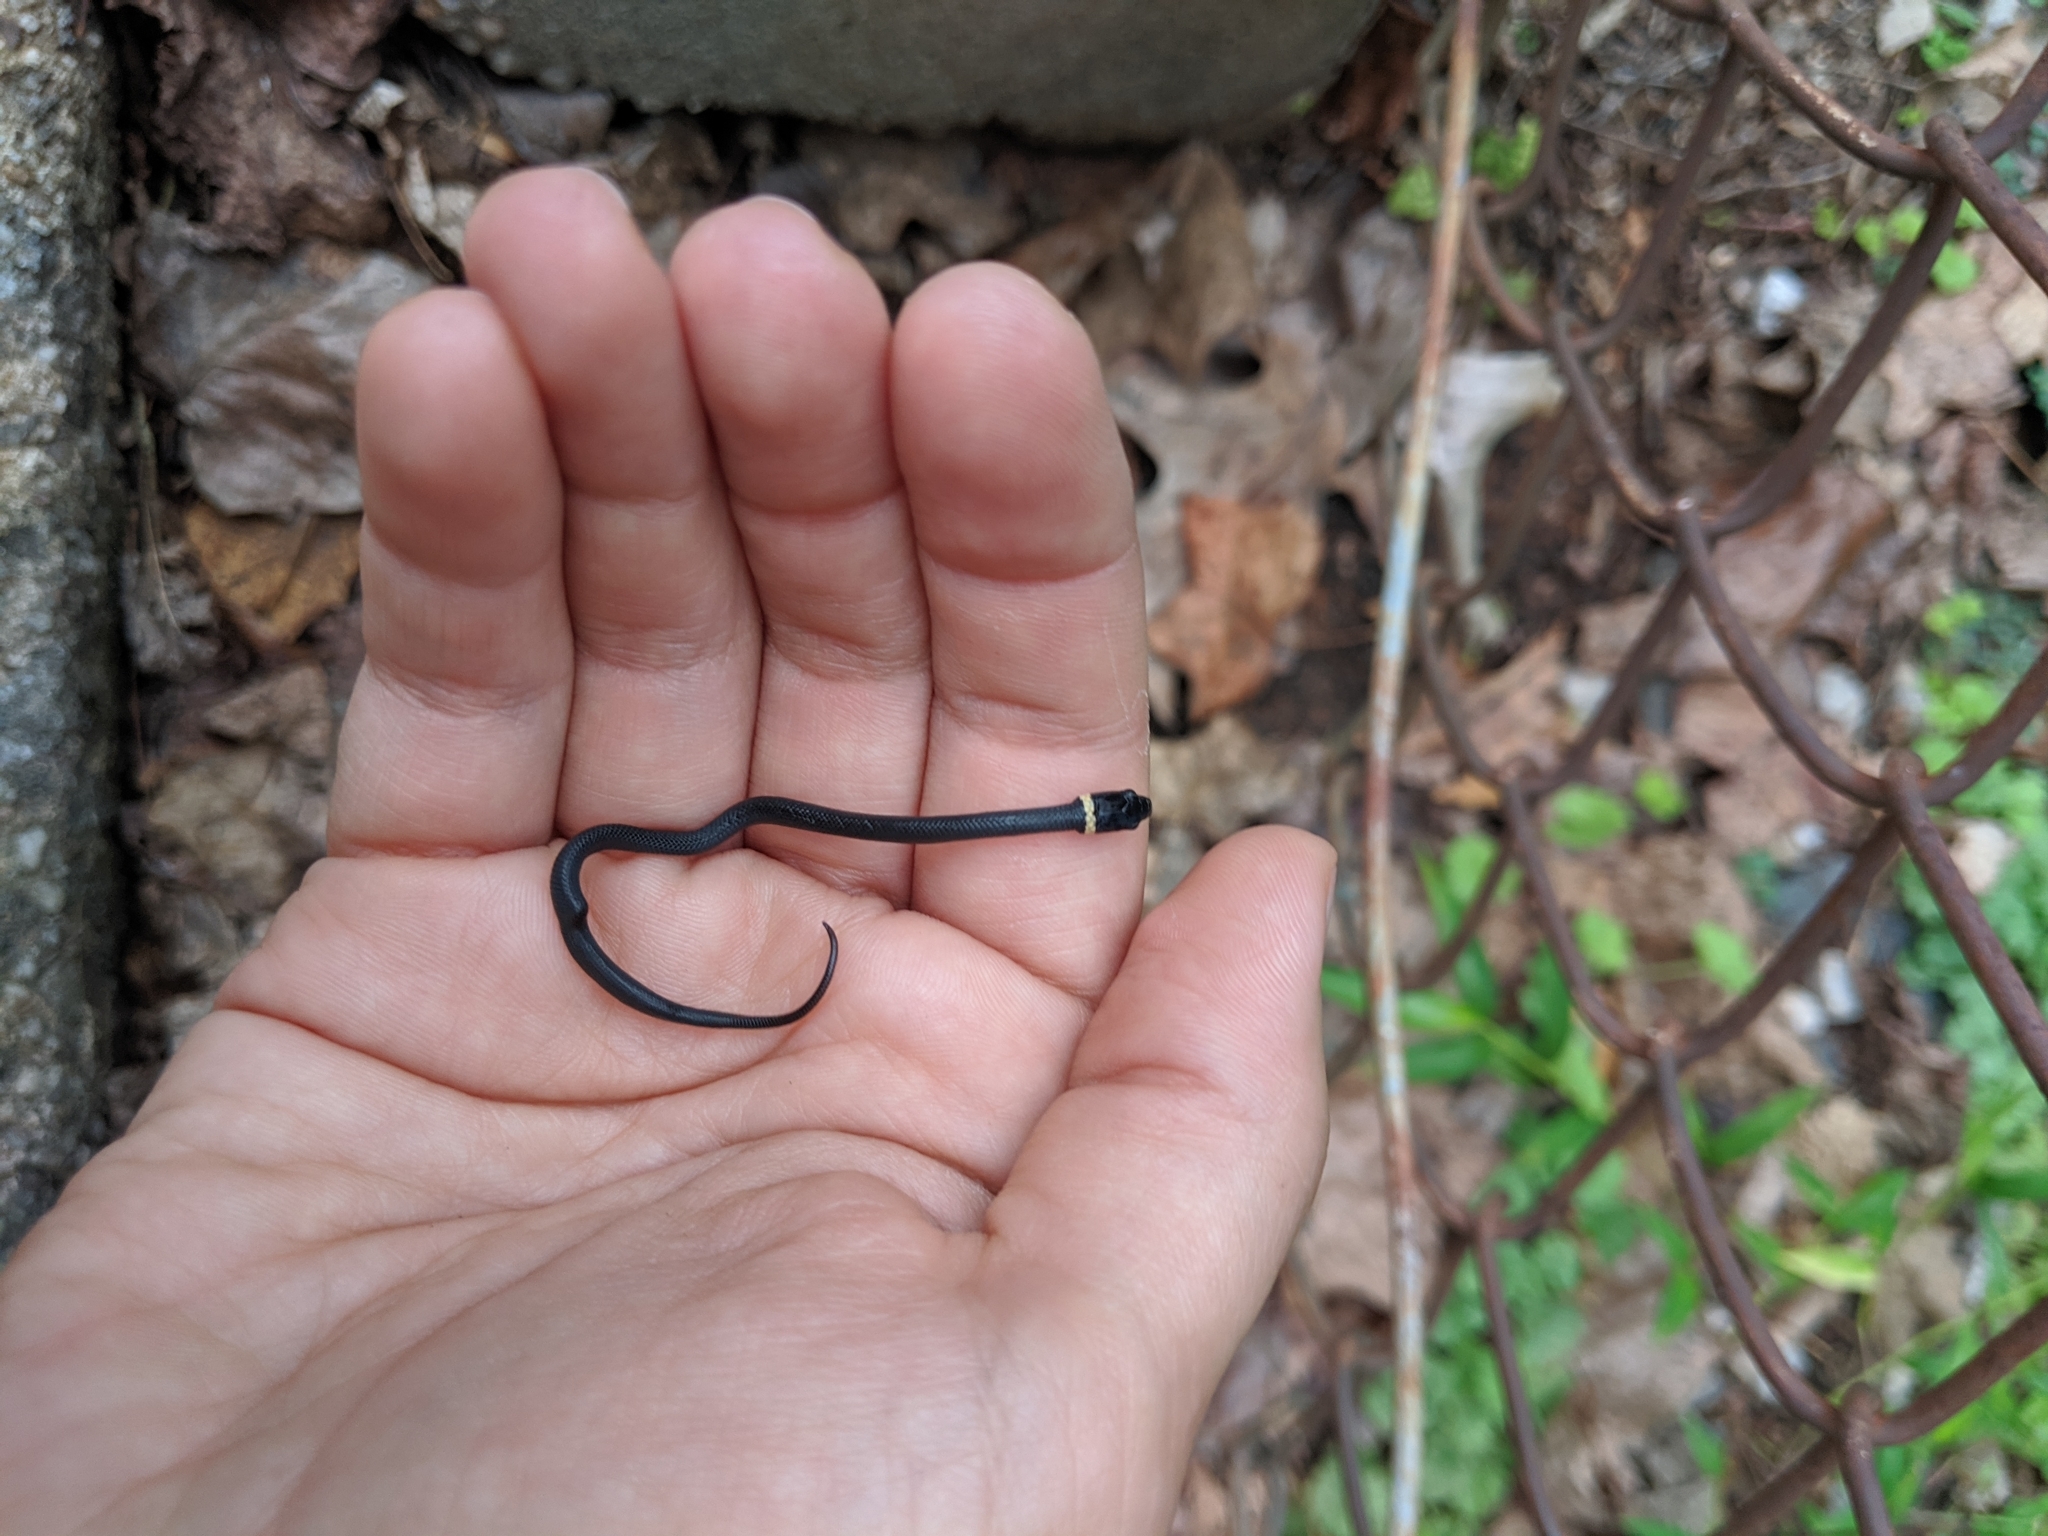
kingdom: Animalia
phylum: Chordata
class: Squamata
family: Colubridae
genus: Diadophis
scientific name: Diadophis punctatus
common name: Ringneck snake
